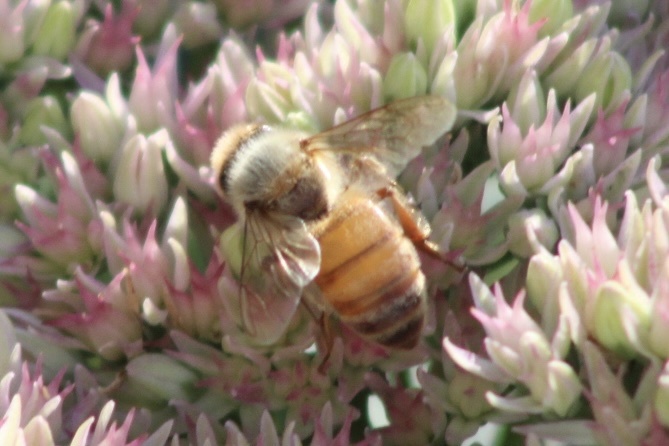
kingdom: Animalia
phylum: Arthropoda
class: Insecta
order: Hymenoptera
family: Apidae
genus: Apis
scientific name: Apis mellifera
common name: Honey bee
